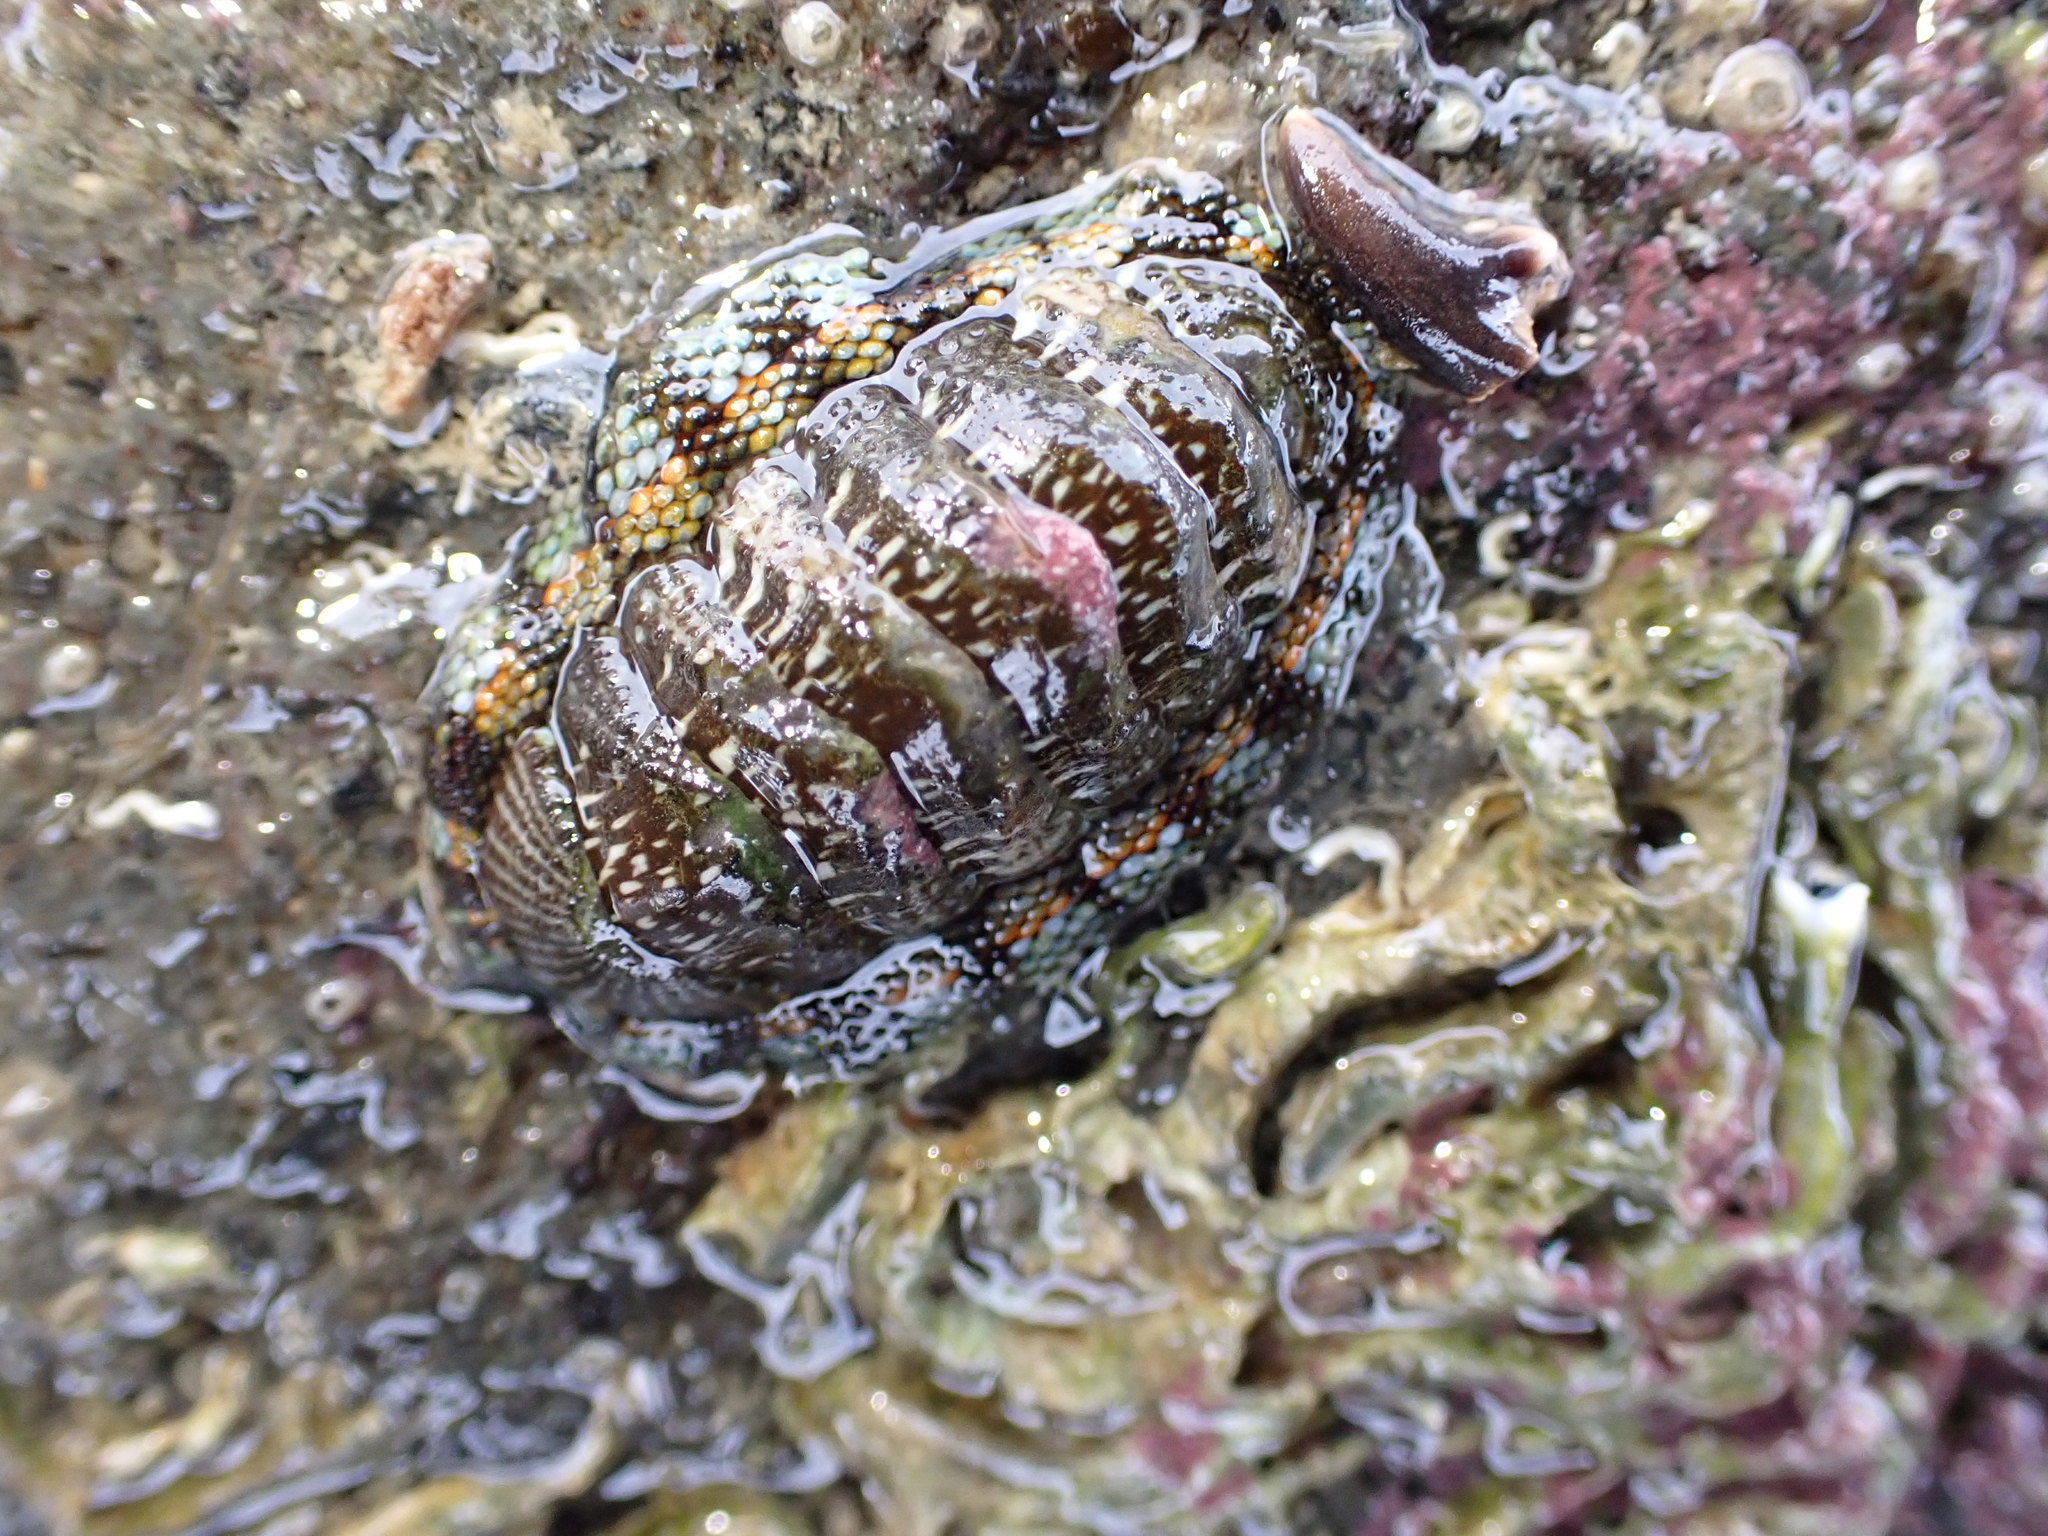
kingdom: Animalia
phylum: Mollusca
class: Polyplacophora
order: Chitonida
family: Chitonidae
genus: Sypharochiton
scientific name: Sypharochiton sinclairi
